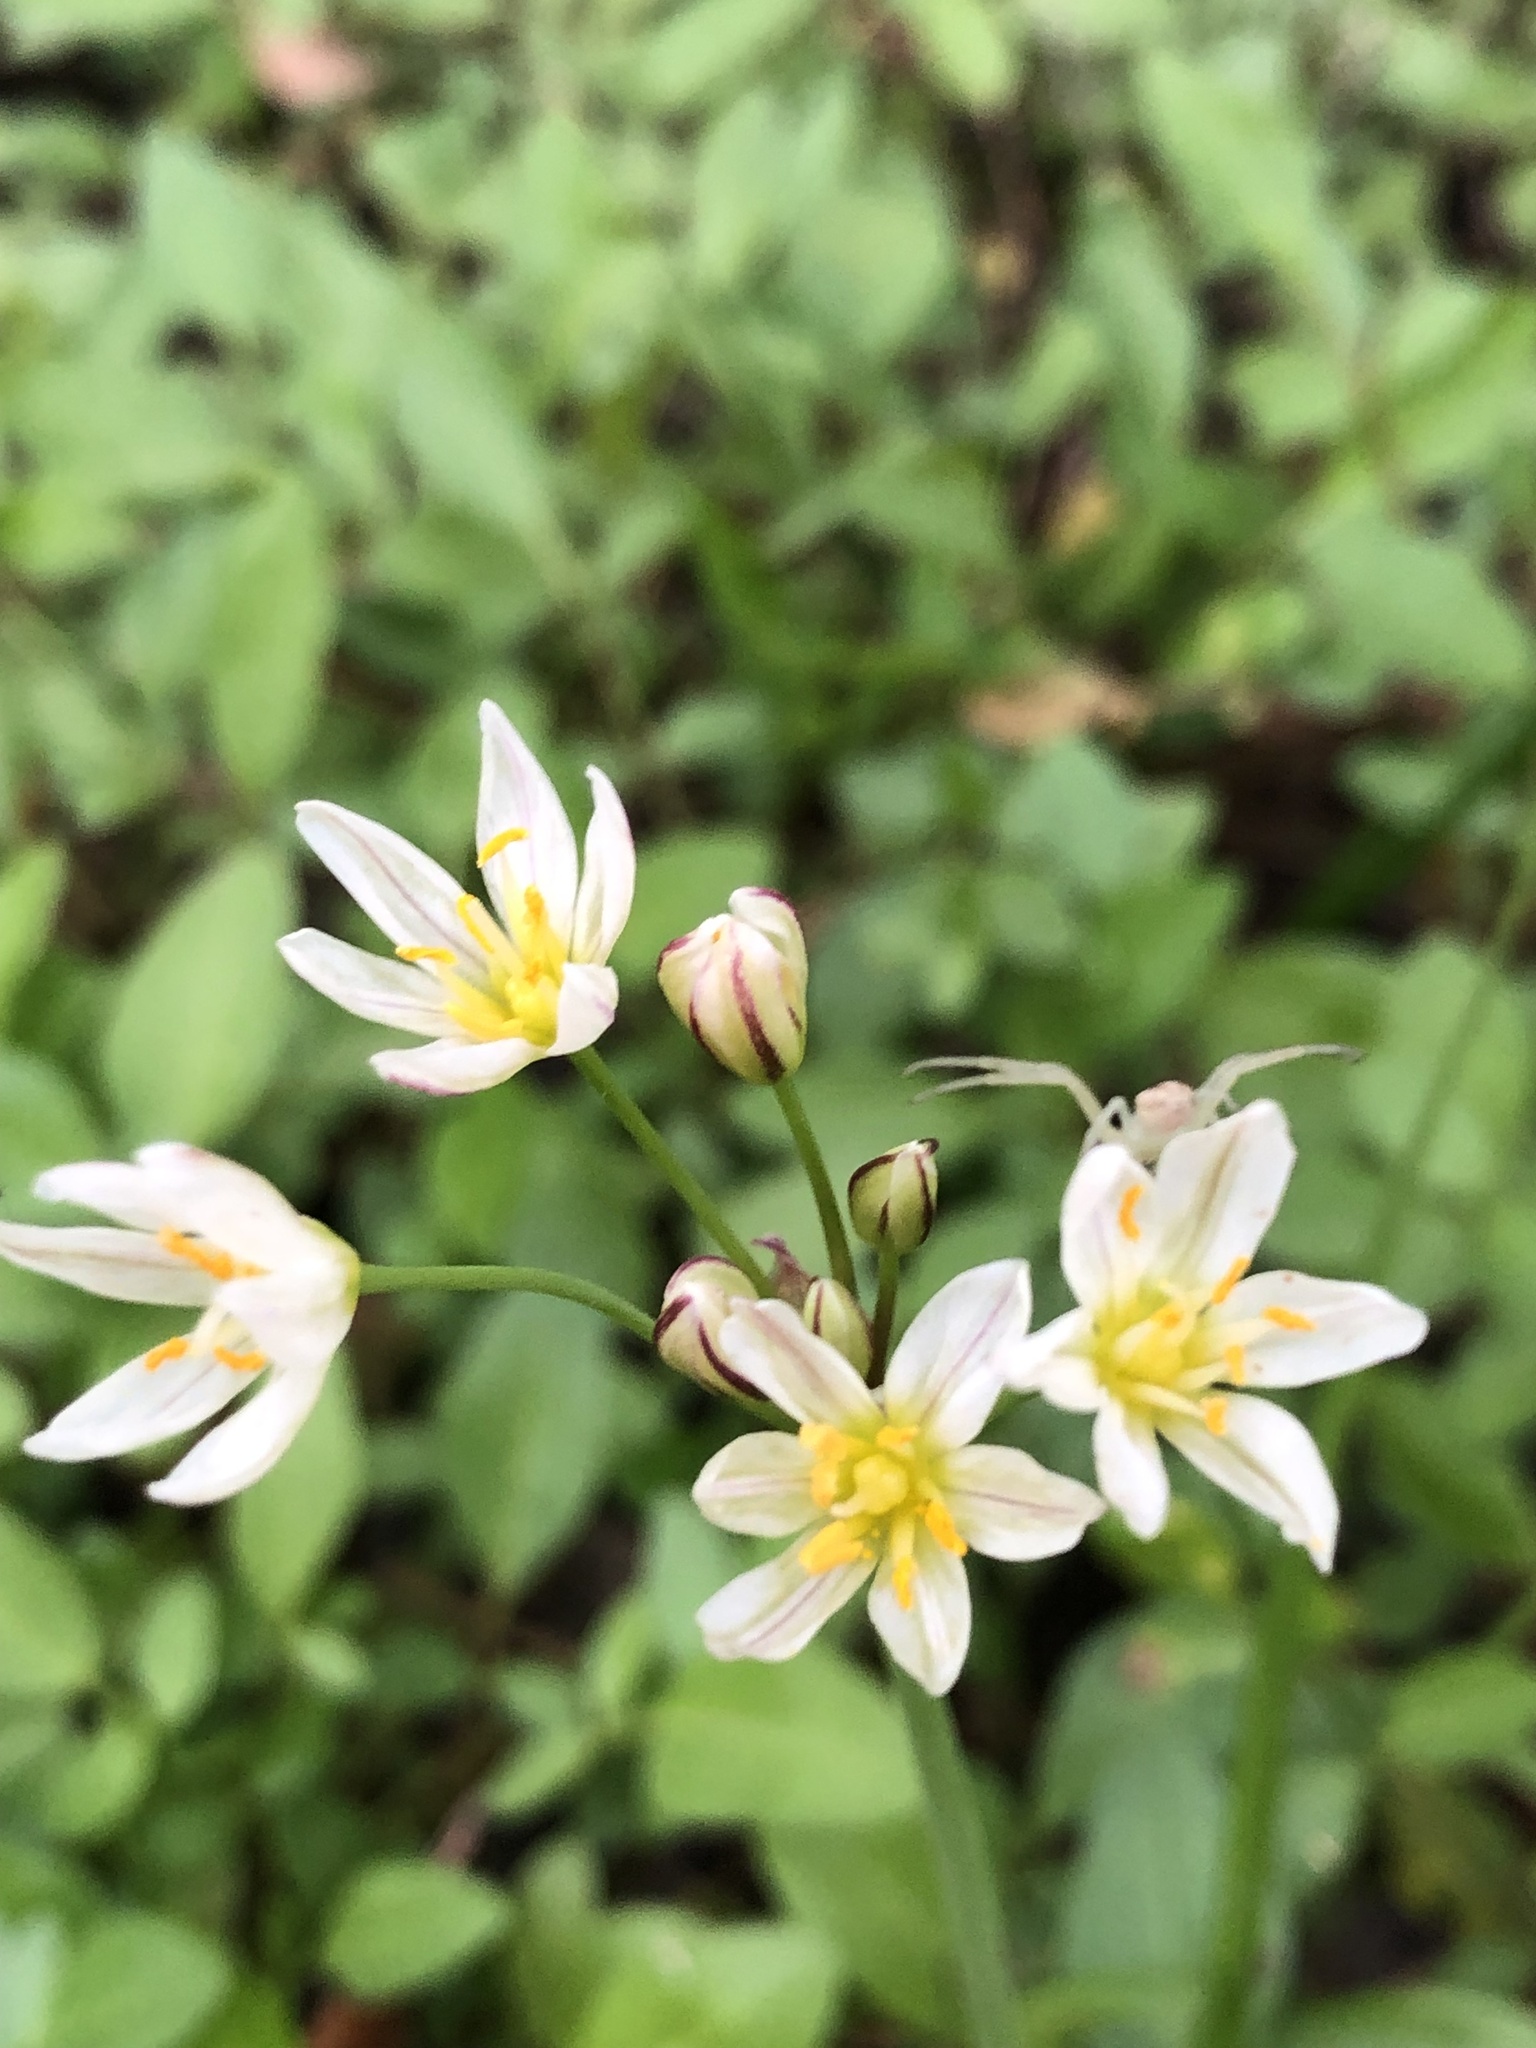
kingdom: Plantae
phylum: Tracheophyta
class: Liliopsida
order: Asparagales
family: Amaryllidaceae
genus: Nothoscordum
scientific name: Nothoscordum bivalve
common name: Crow-poison
